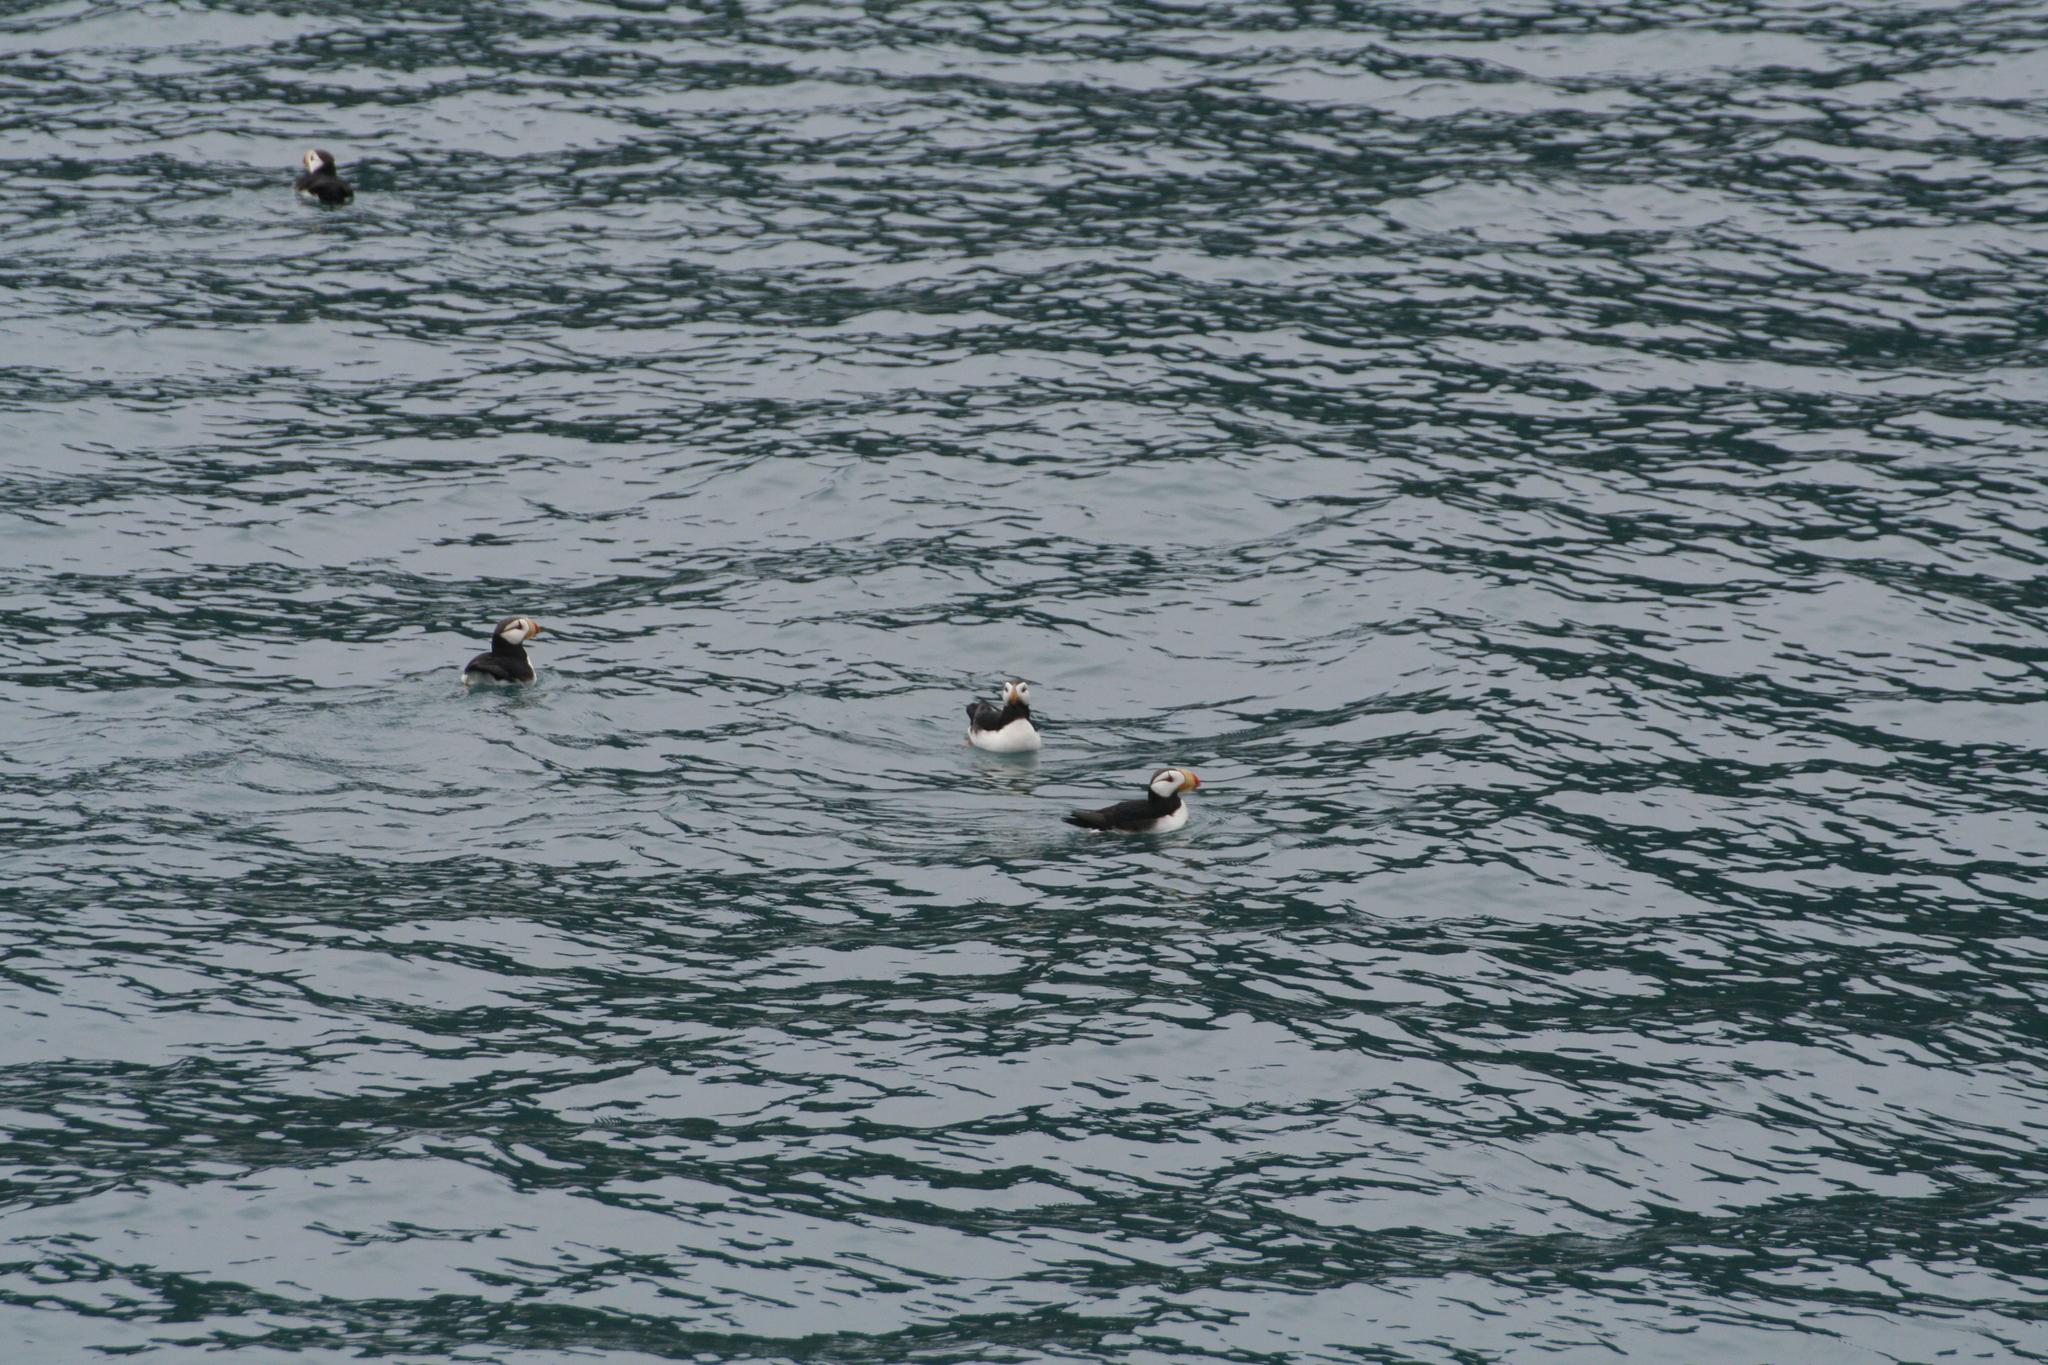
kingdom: Animalia
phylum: Chordata
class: Aves
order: Charadriiformes
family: Alcidae
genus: Fratercula
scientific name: Fratercula corniculata
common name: Horned puffin
